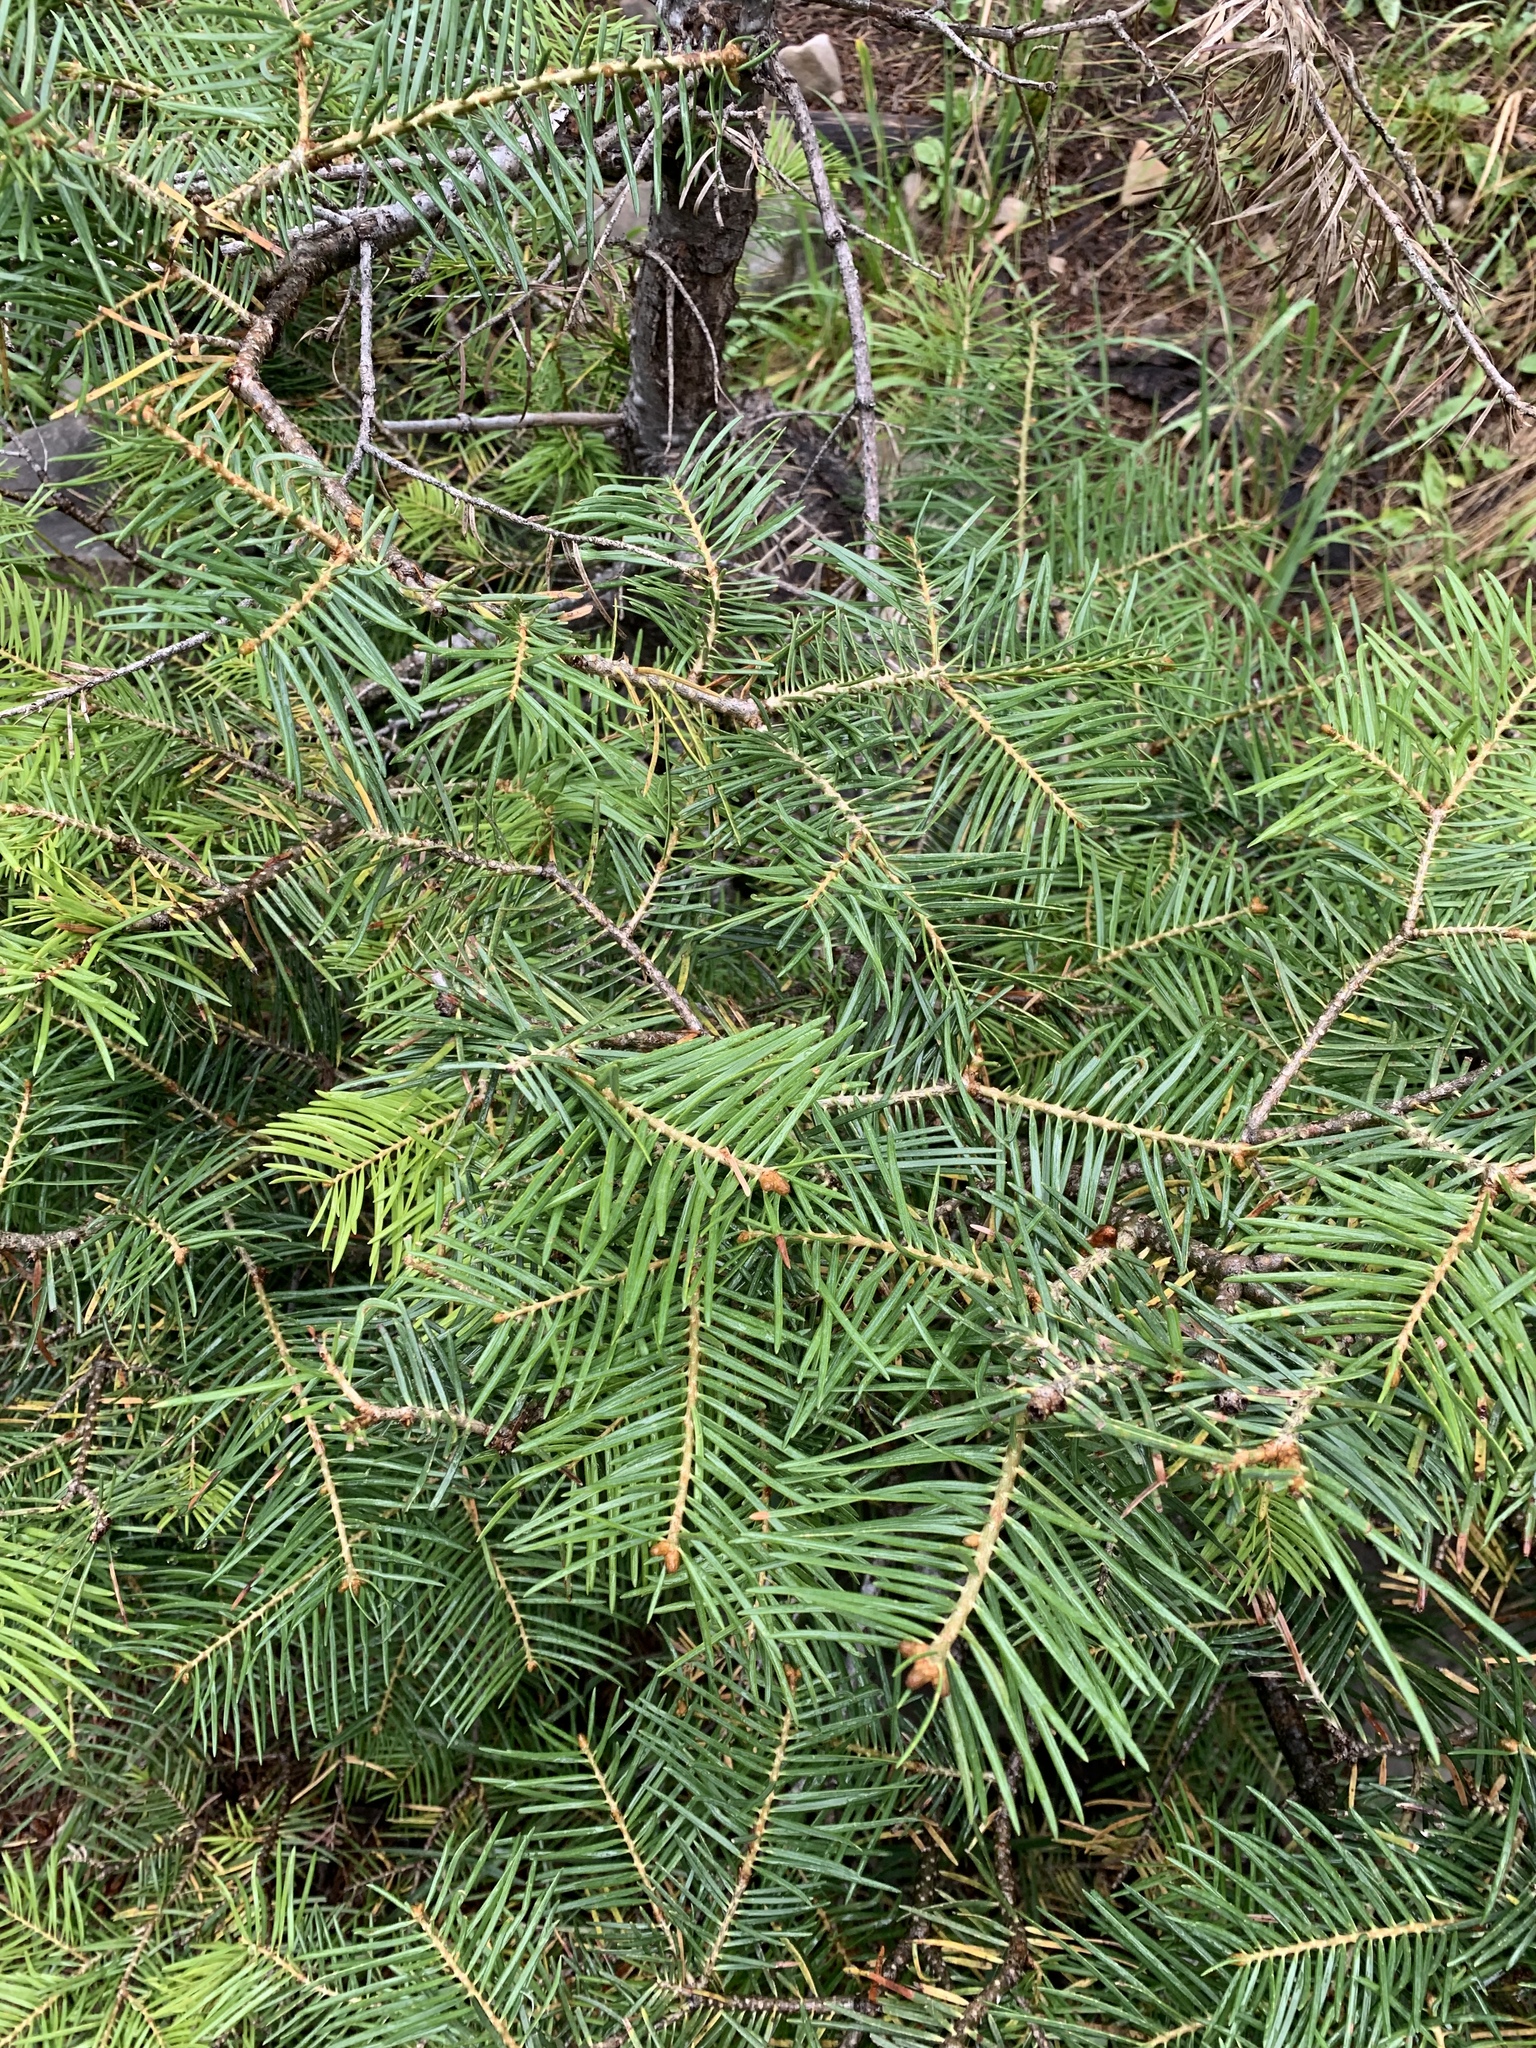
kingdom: Plantae
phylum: Tracheophyta
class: Pinopsida
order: Pinales
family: Pinaceae
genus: Abies
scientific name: Abies concolor
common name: Colorado fir
